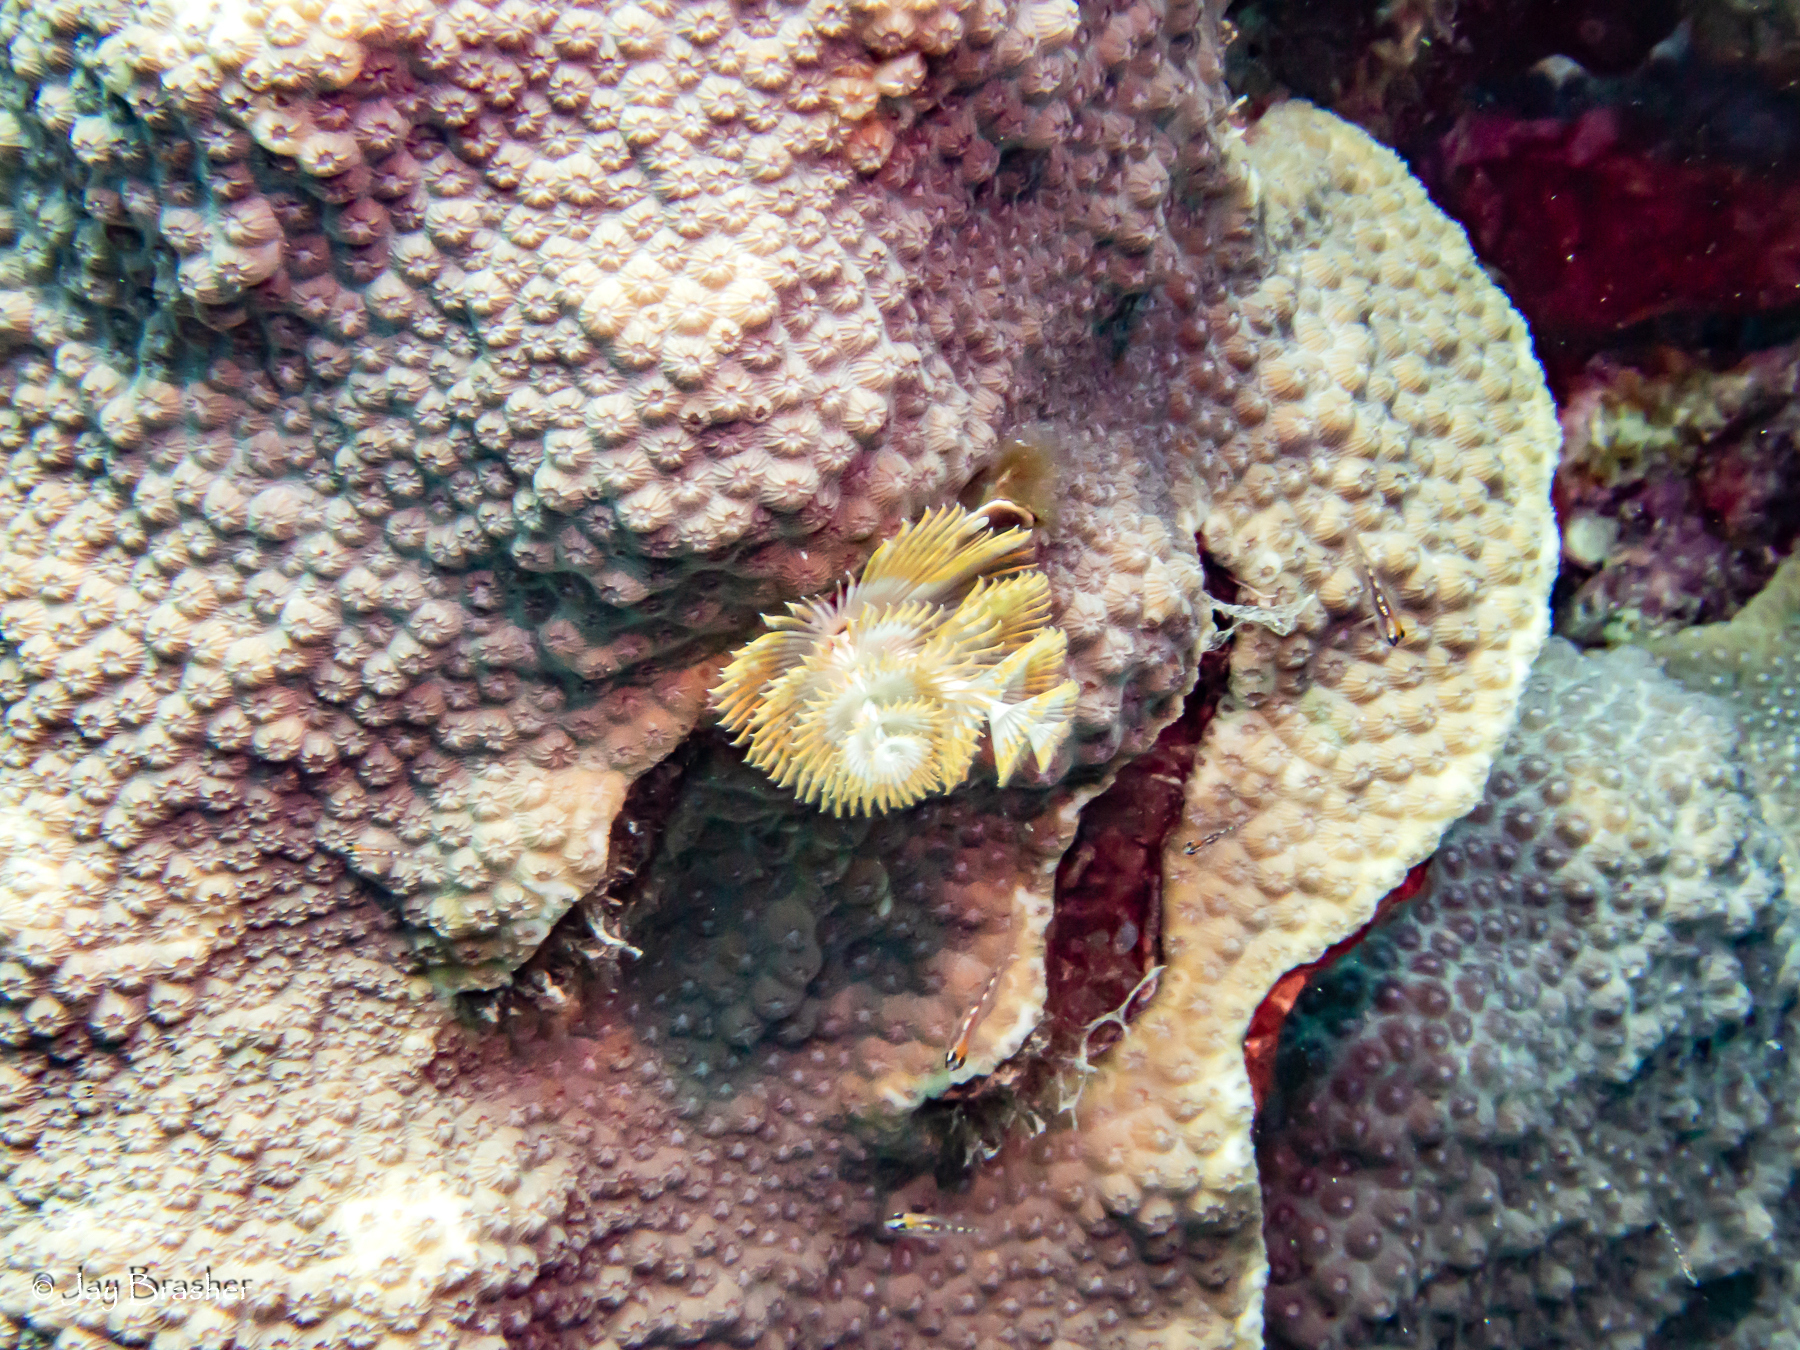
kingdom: Animalia
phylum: Annelida
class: Polychaeta
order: Sabellida
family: Serpulidae
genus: Spirobranchus
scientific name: Spirobranchus giganteus
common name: Christmas tree worm
